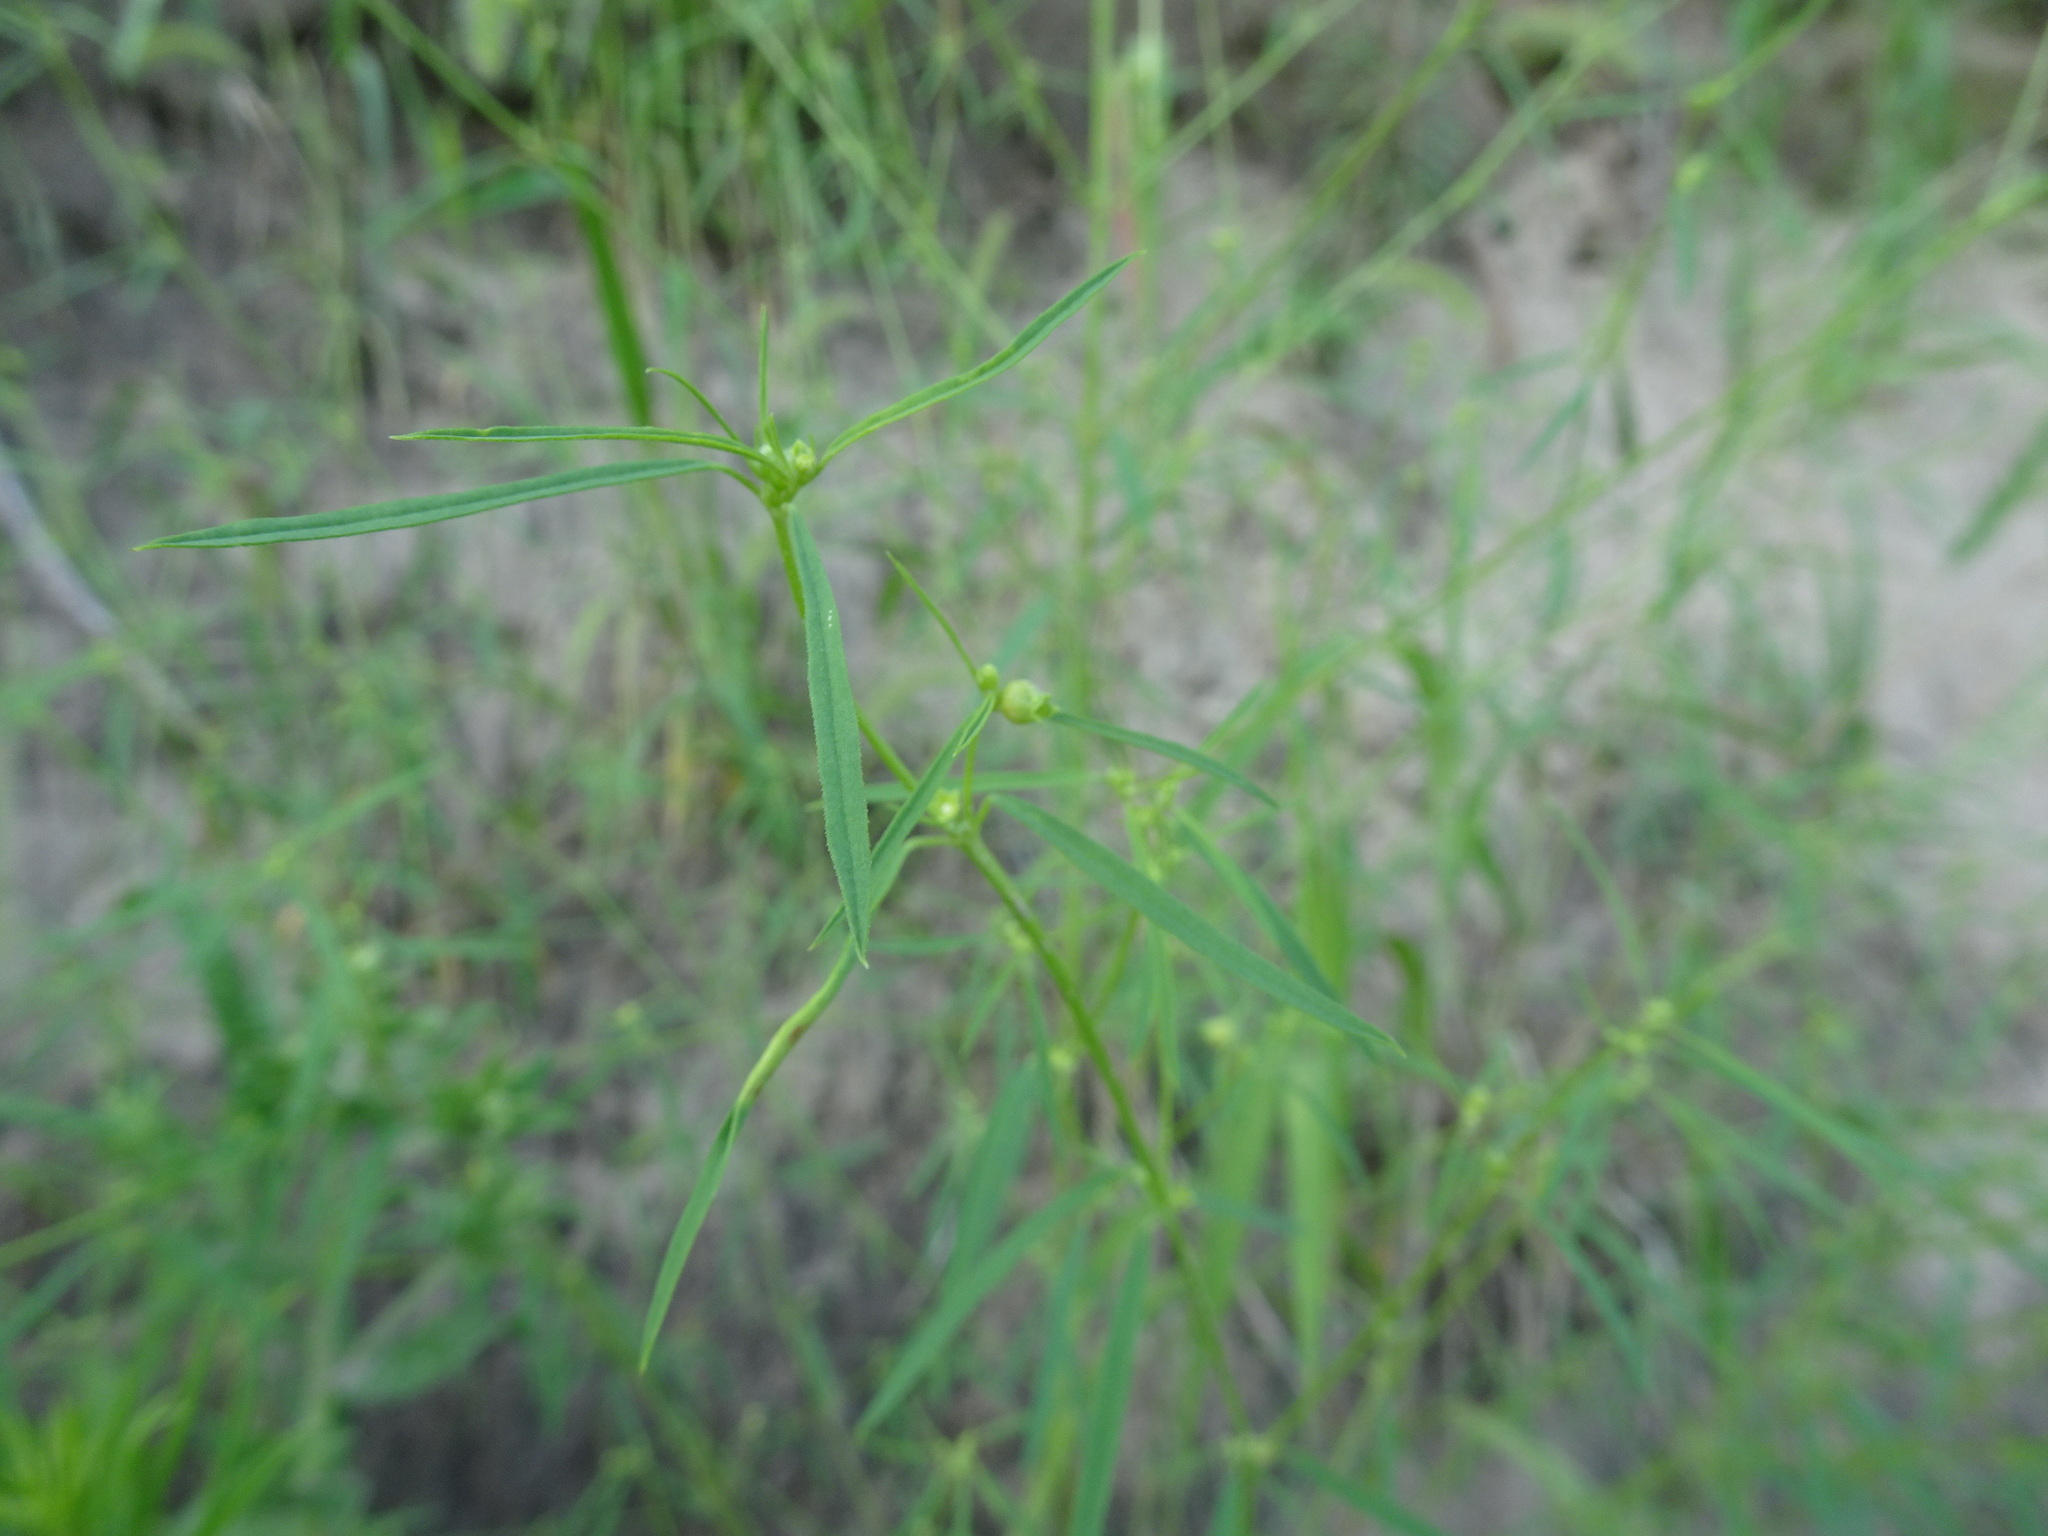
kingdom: Plantae
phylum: Tracheophyta
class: Magnoliopsida
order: Malpighiales
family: Euphorbiaceae
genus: Euphorbia
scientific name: Euphorbia hexagona
